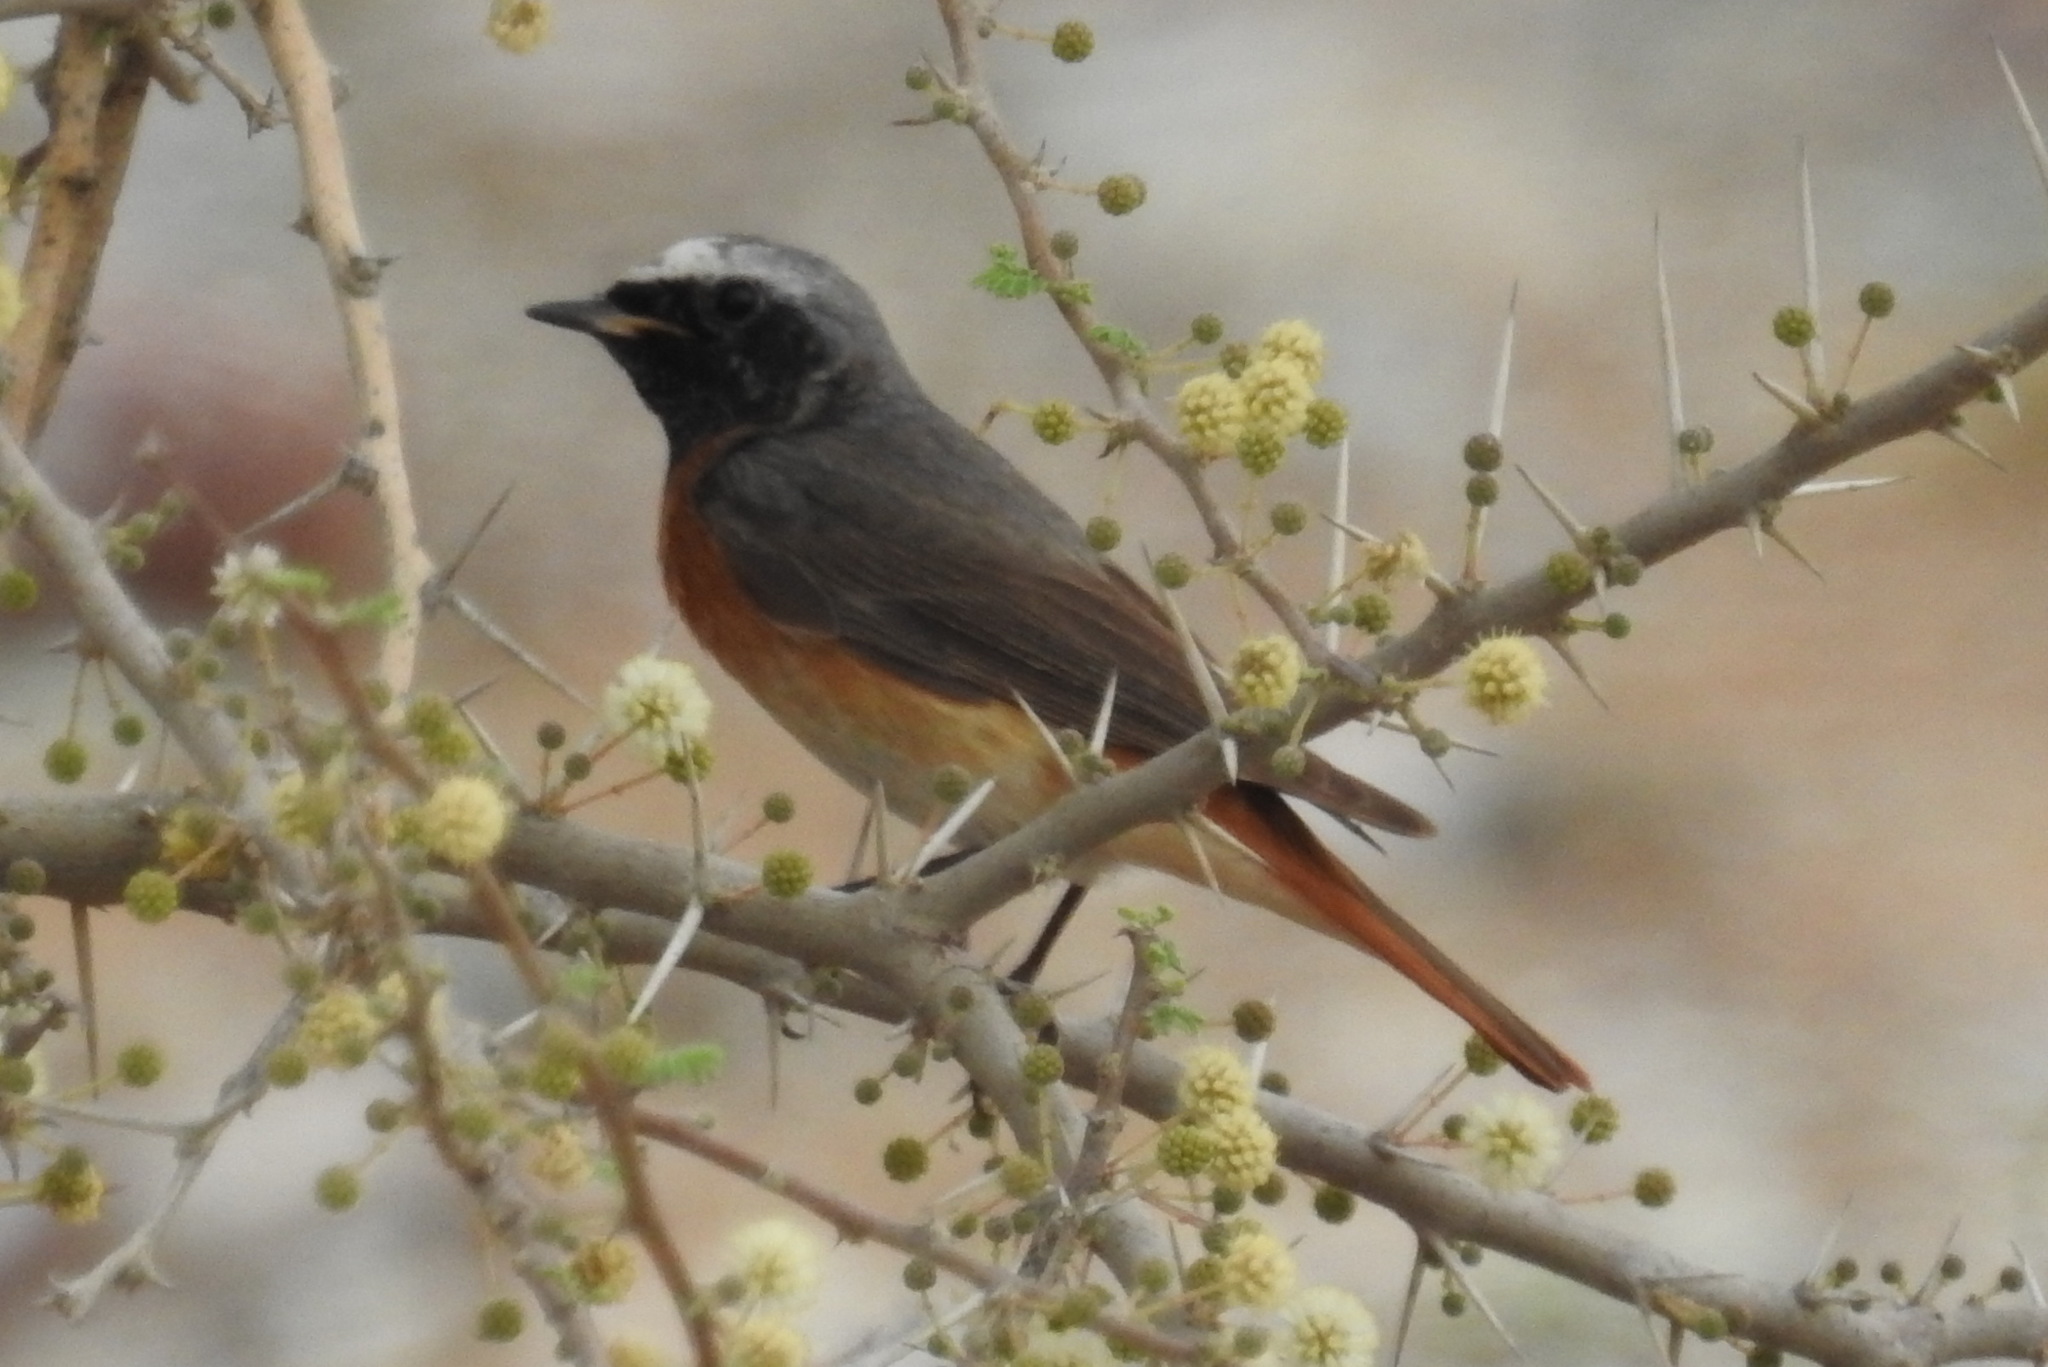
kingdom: Animalia
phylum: Chordata
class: Aves
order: Passeriformes
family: Muscicapidae
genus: Phoenicurus
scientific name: Phoenicurus phoenicurus
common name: Common redstart
